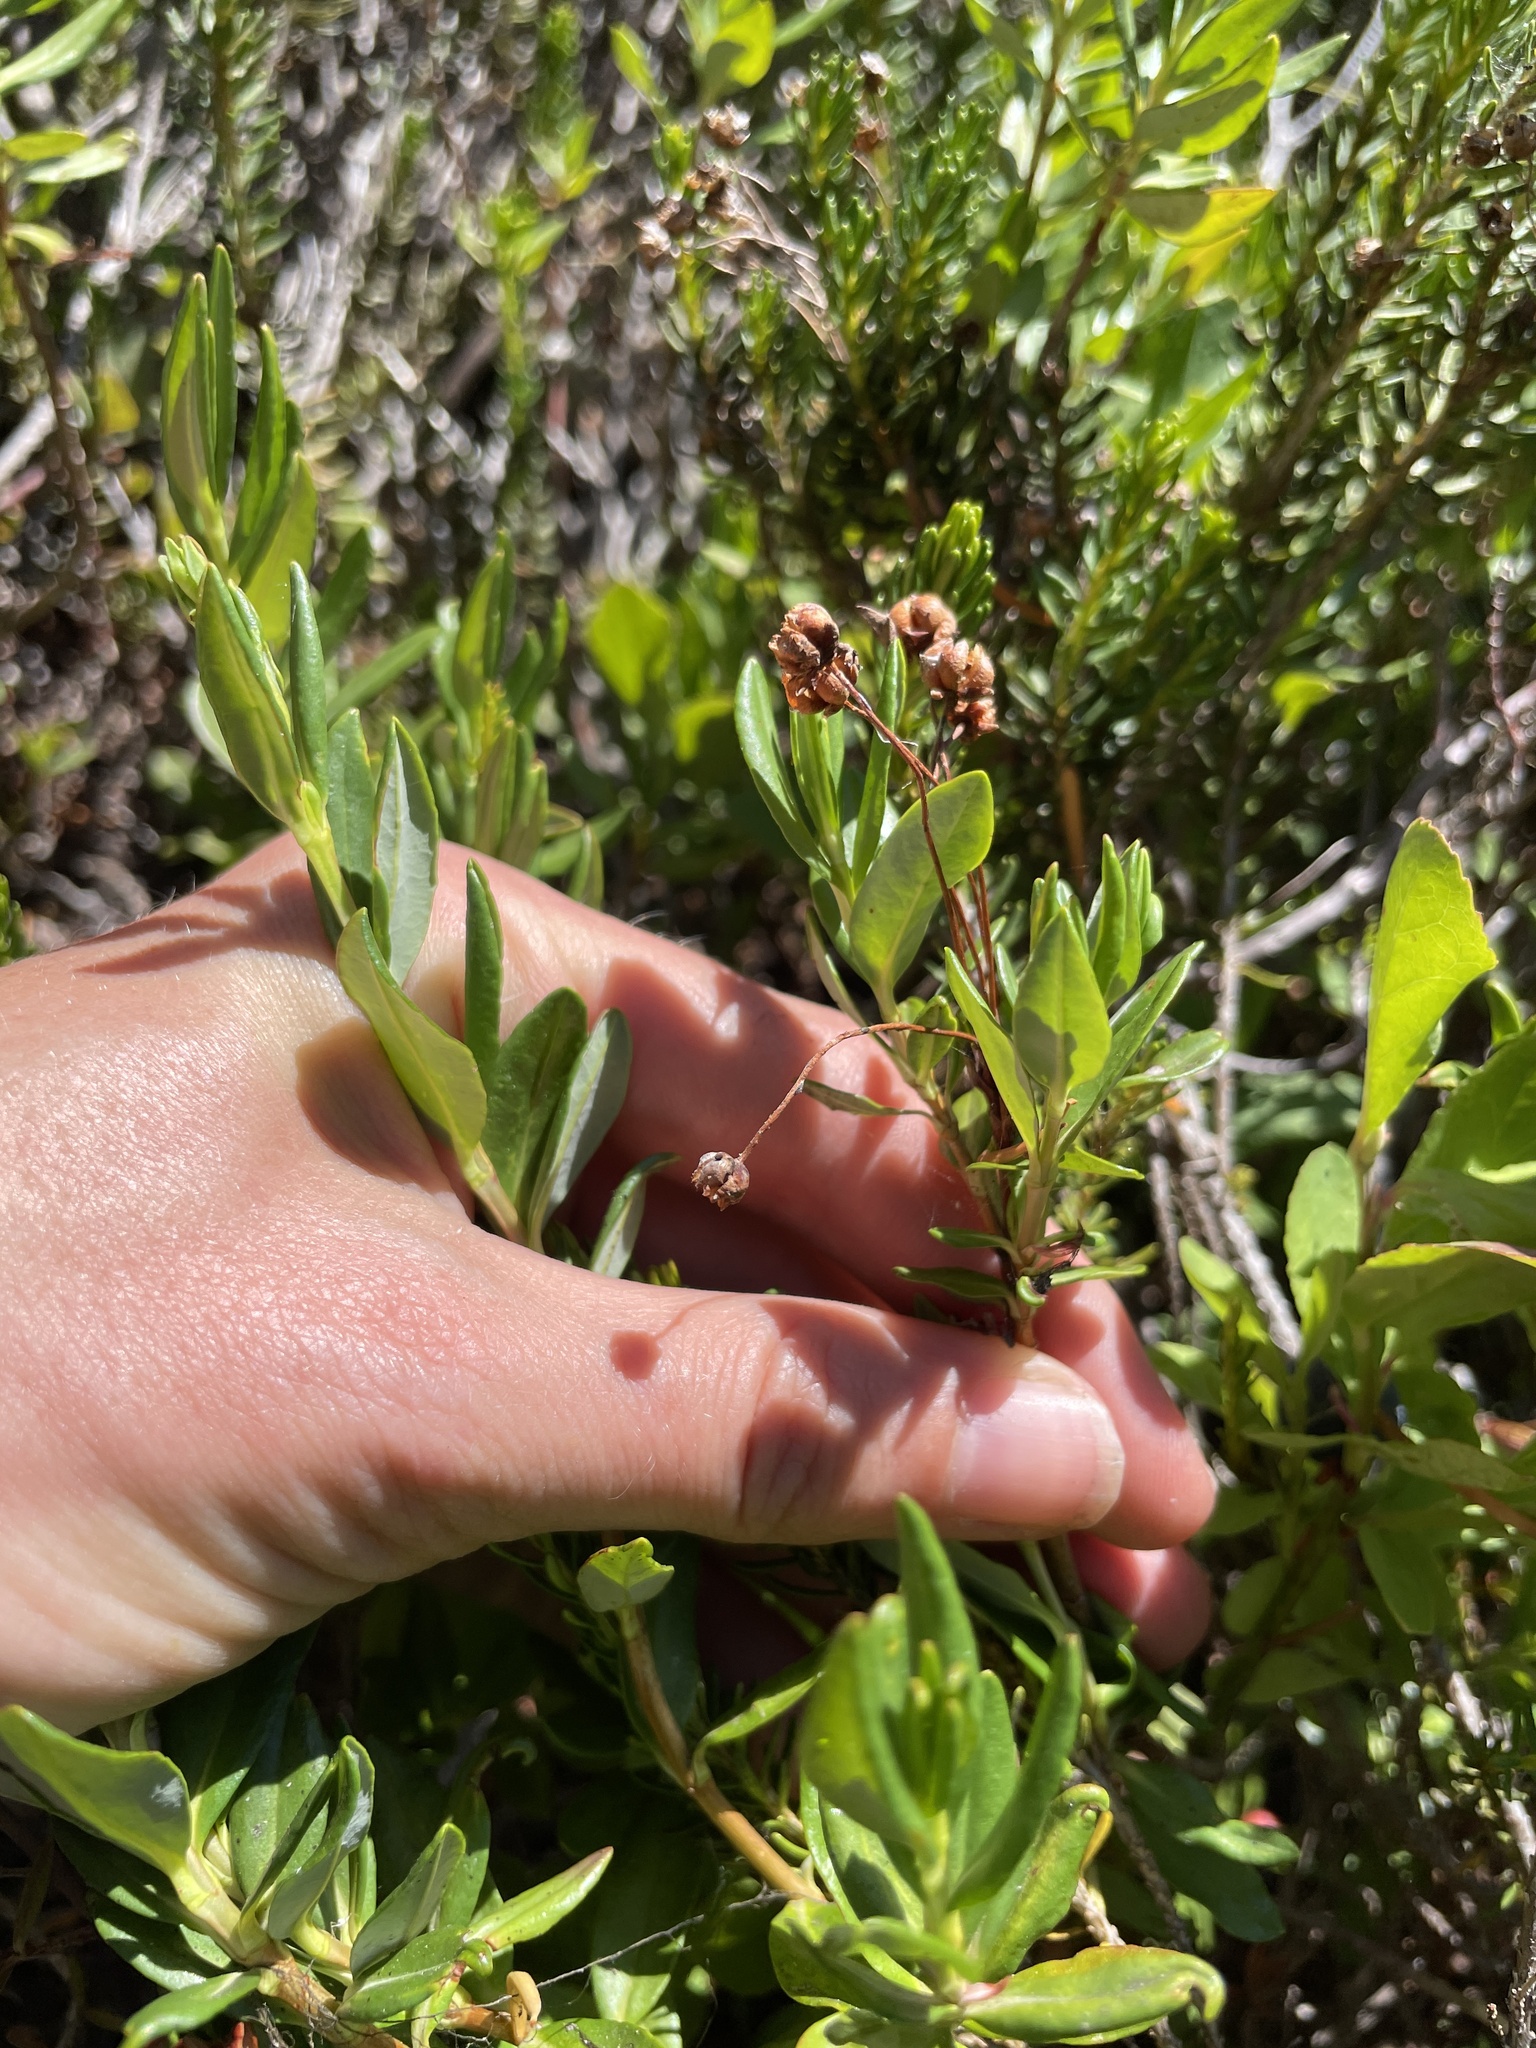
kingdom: Plantae
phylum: Tracheophyta
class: Magnoliopsida
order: Ericales
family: Ericaceae
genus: Kalmia
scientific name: Kalmia microphylla
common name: Alpine bog laurel
